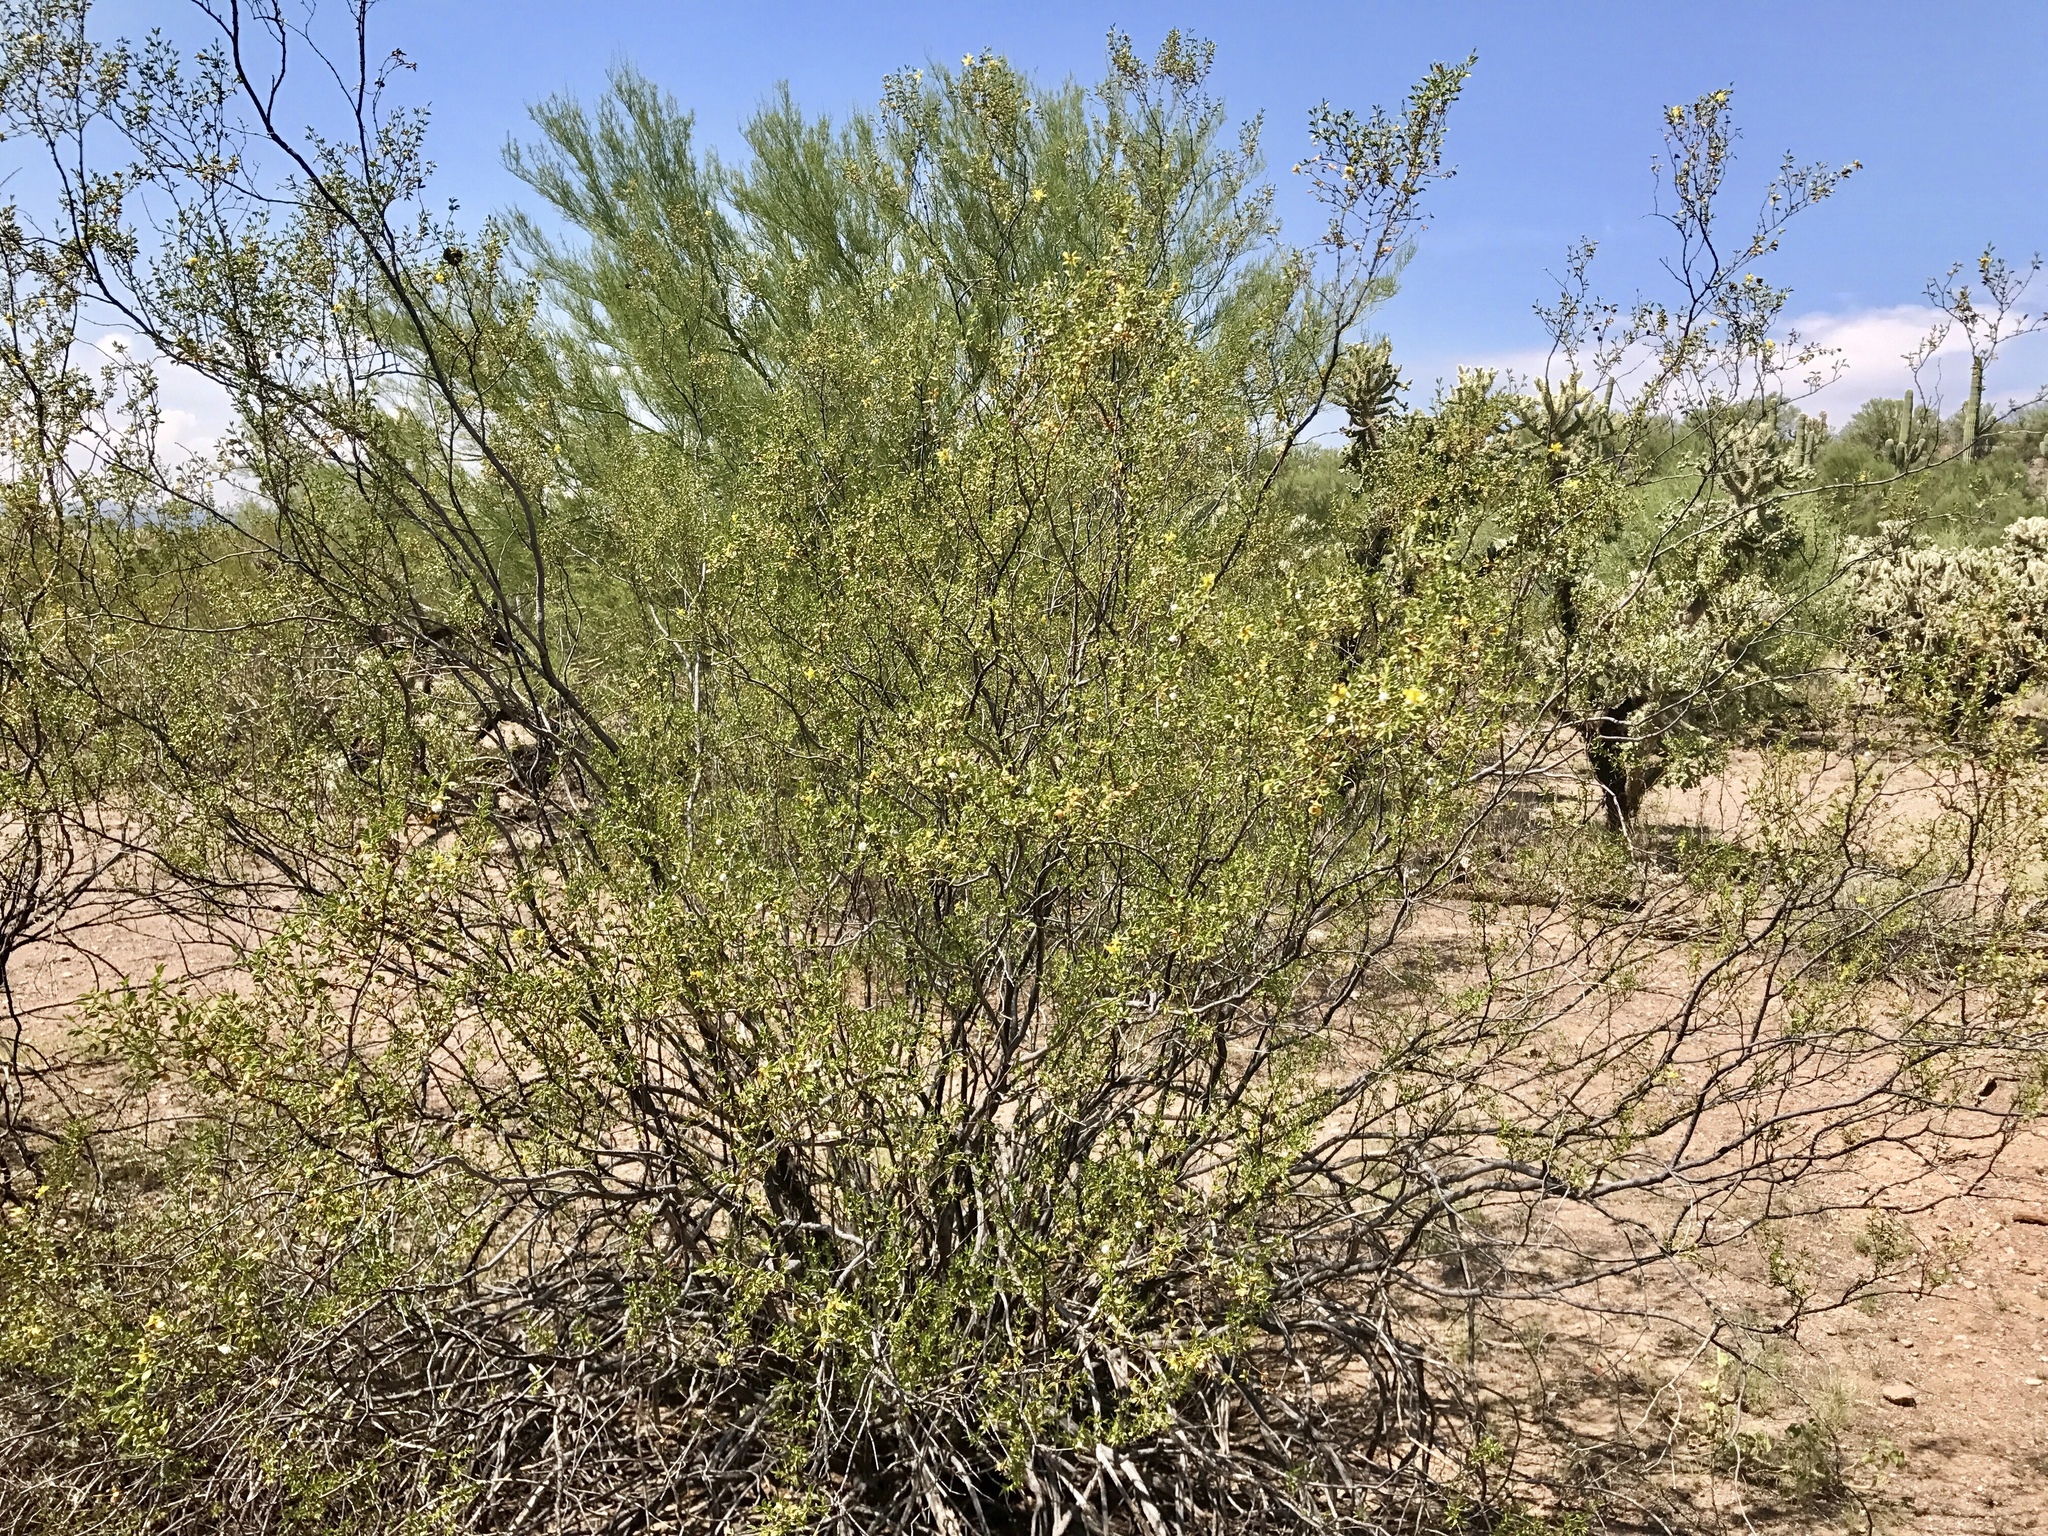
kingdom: Plantae
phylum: Tracheophyta
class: Magnoliopsida
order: Zygophyllales
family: Zygophyllaceae
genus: Larrea
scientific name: Larrea tridentata
